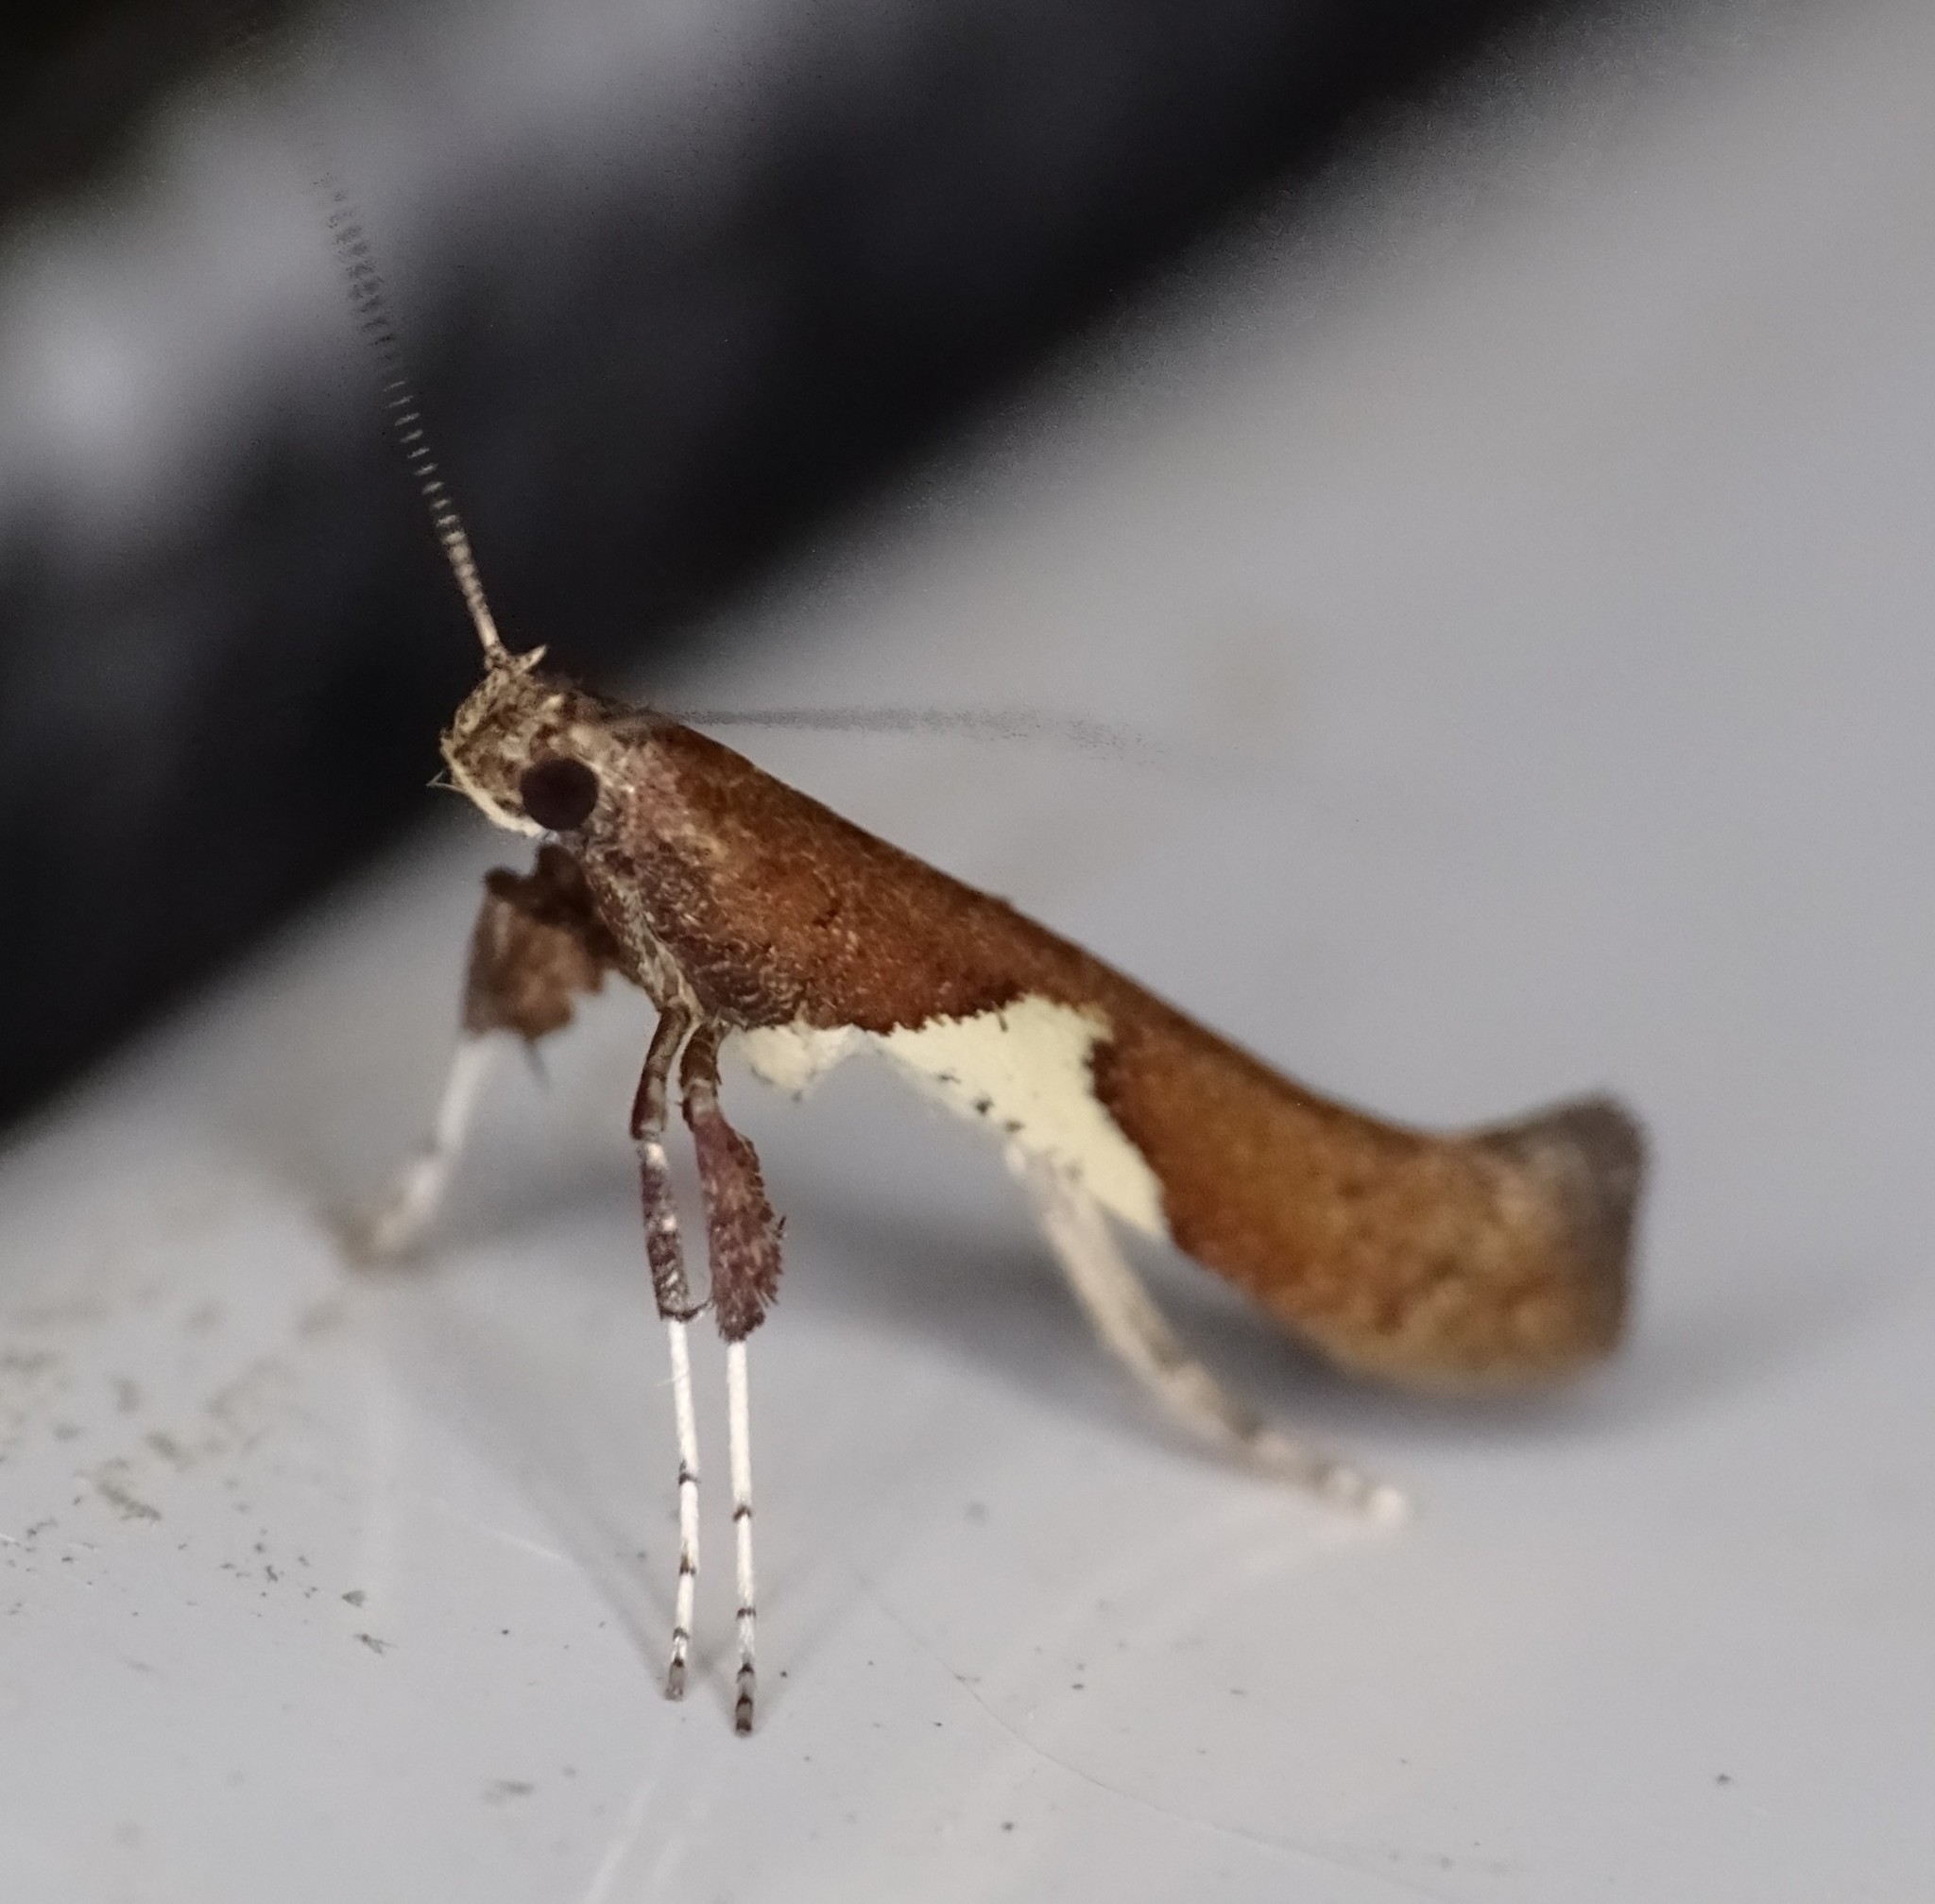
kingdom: Animalia
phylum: Arthropoda
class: Insecta
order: Lepidoptera
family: Gracillariidae
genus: Caloptilia
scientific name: Caloptilia stigmatella
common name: White-triangle slender
